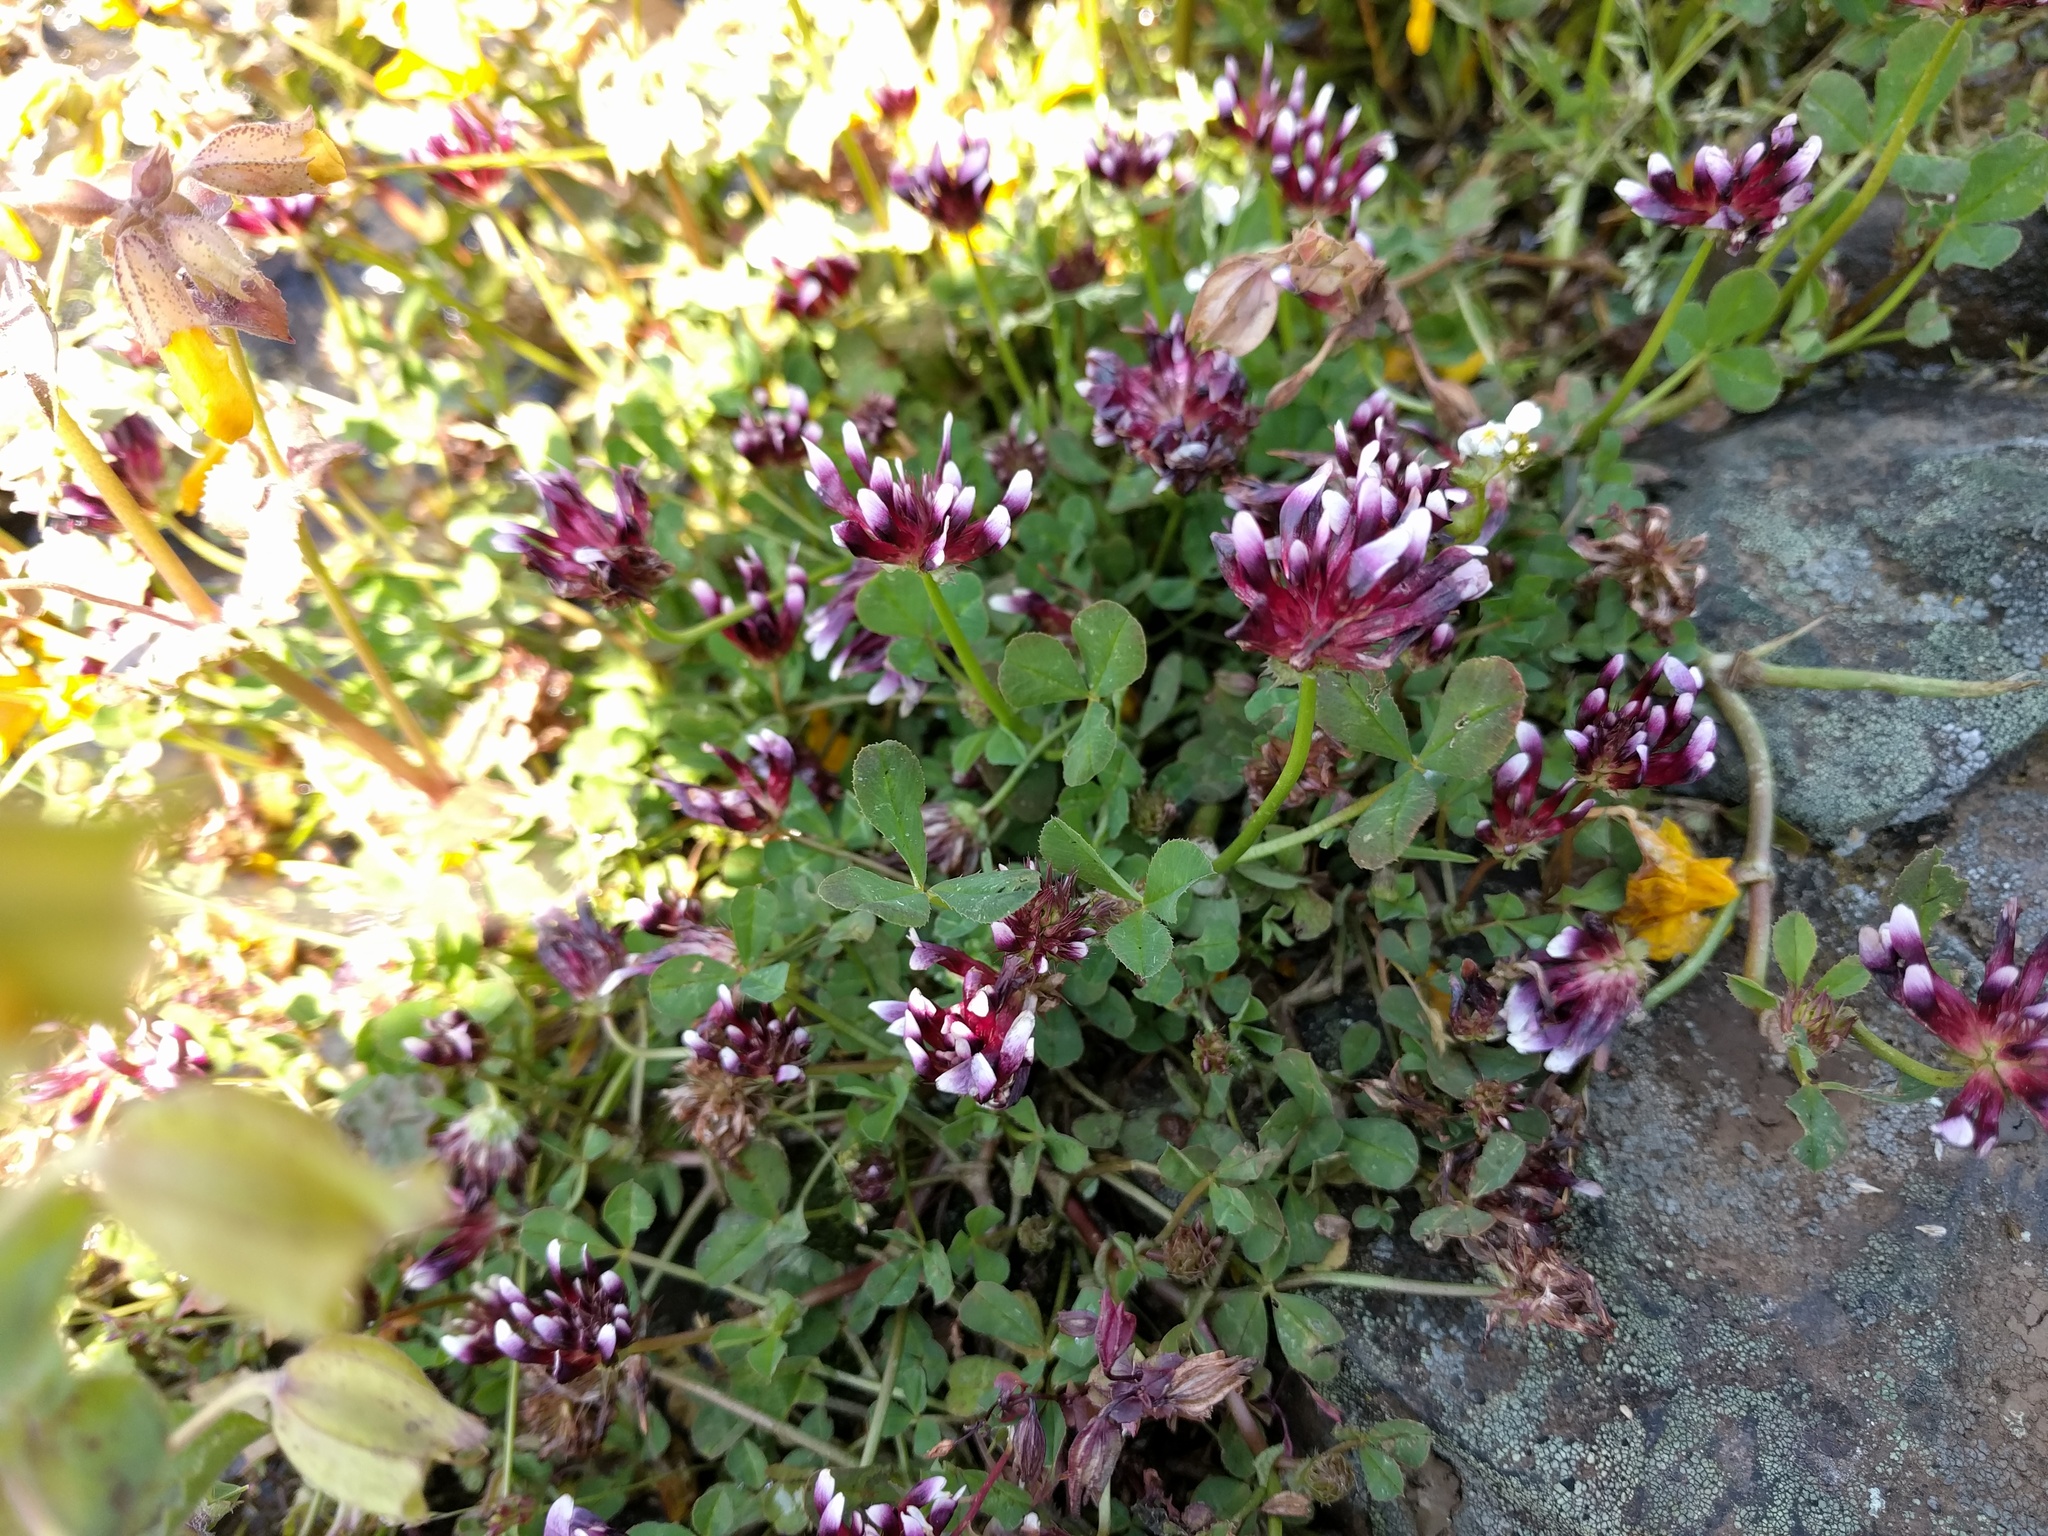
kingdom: Plantae
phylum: Tracheophyta
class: Magnoliopsida
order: Fabales
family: Fabaceae
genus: Trifolium
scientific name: Trifolium variegatum
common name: Whitetip clover
